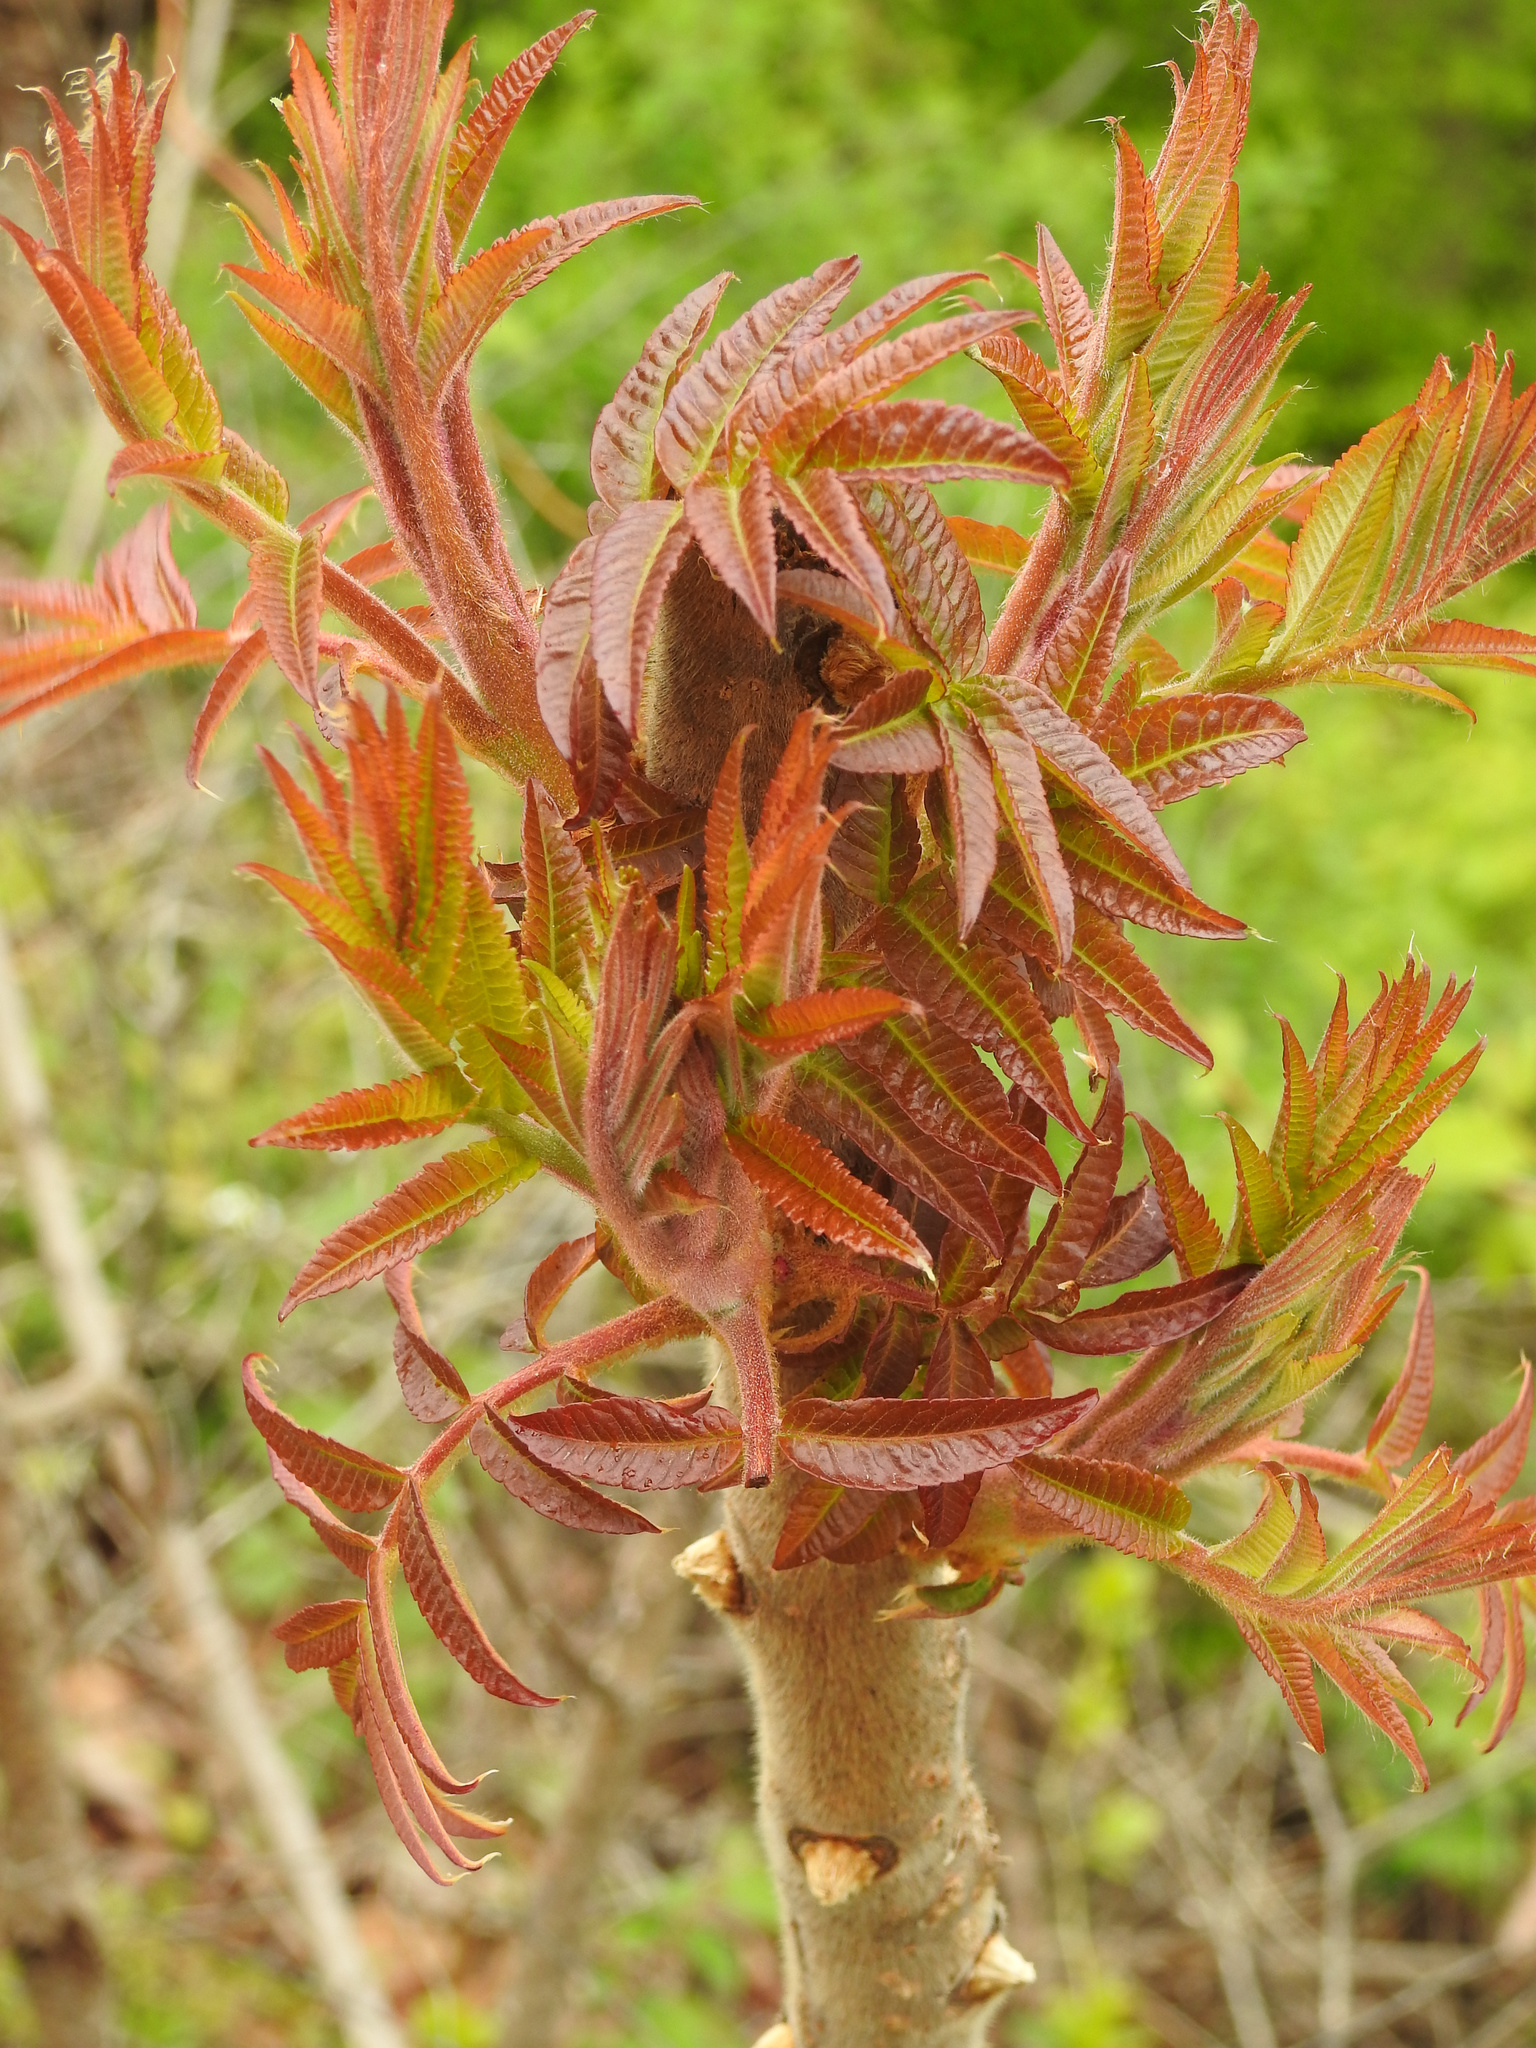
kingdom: Plantae
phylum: Tracheophyta
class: Magnoliopsida
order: Sapindales
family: Anacardiaceae
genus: Rhus
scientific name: Rhus typhina
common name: Staghorn sumac
